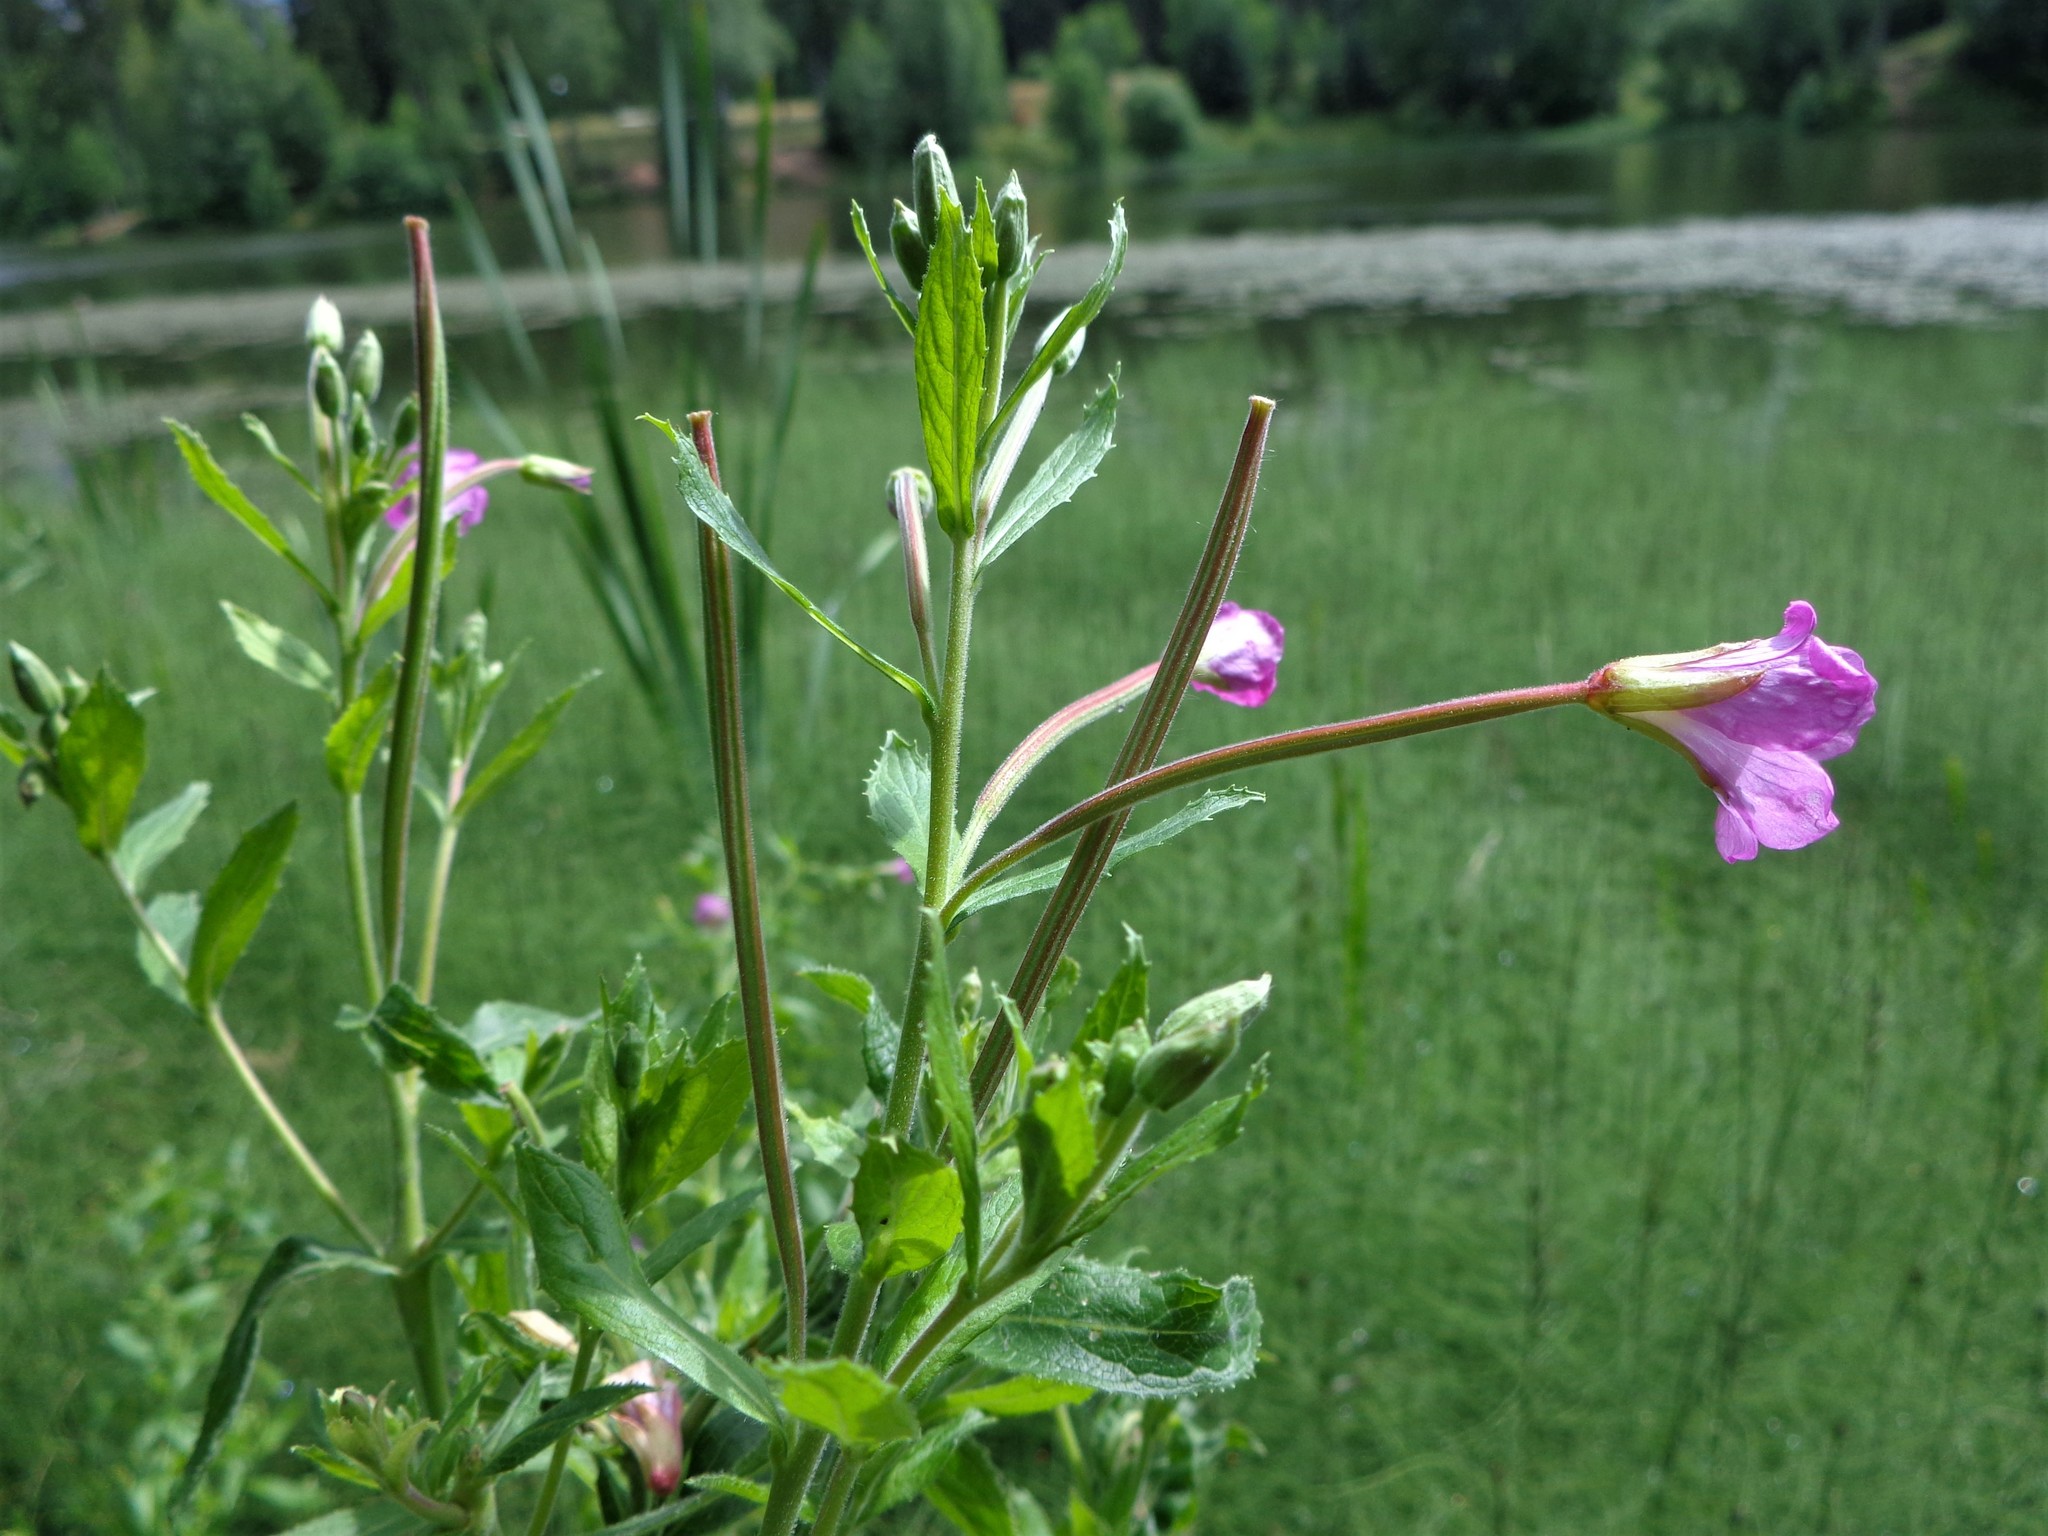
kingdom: Plantae
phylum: Tracheophyta
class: Magnoliopsida
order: Myrtales
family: Onagraceae
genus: Epilobium
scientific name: Epilobium hirsutum
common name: Great willowherb
